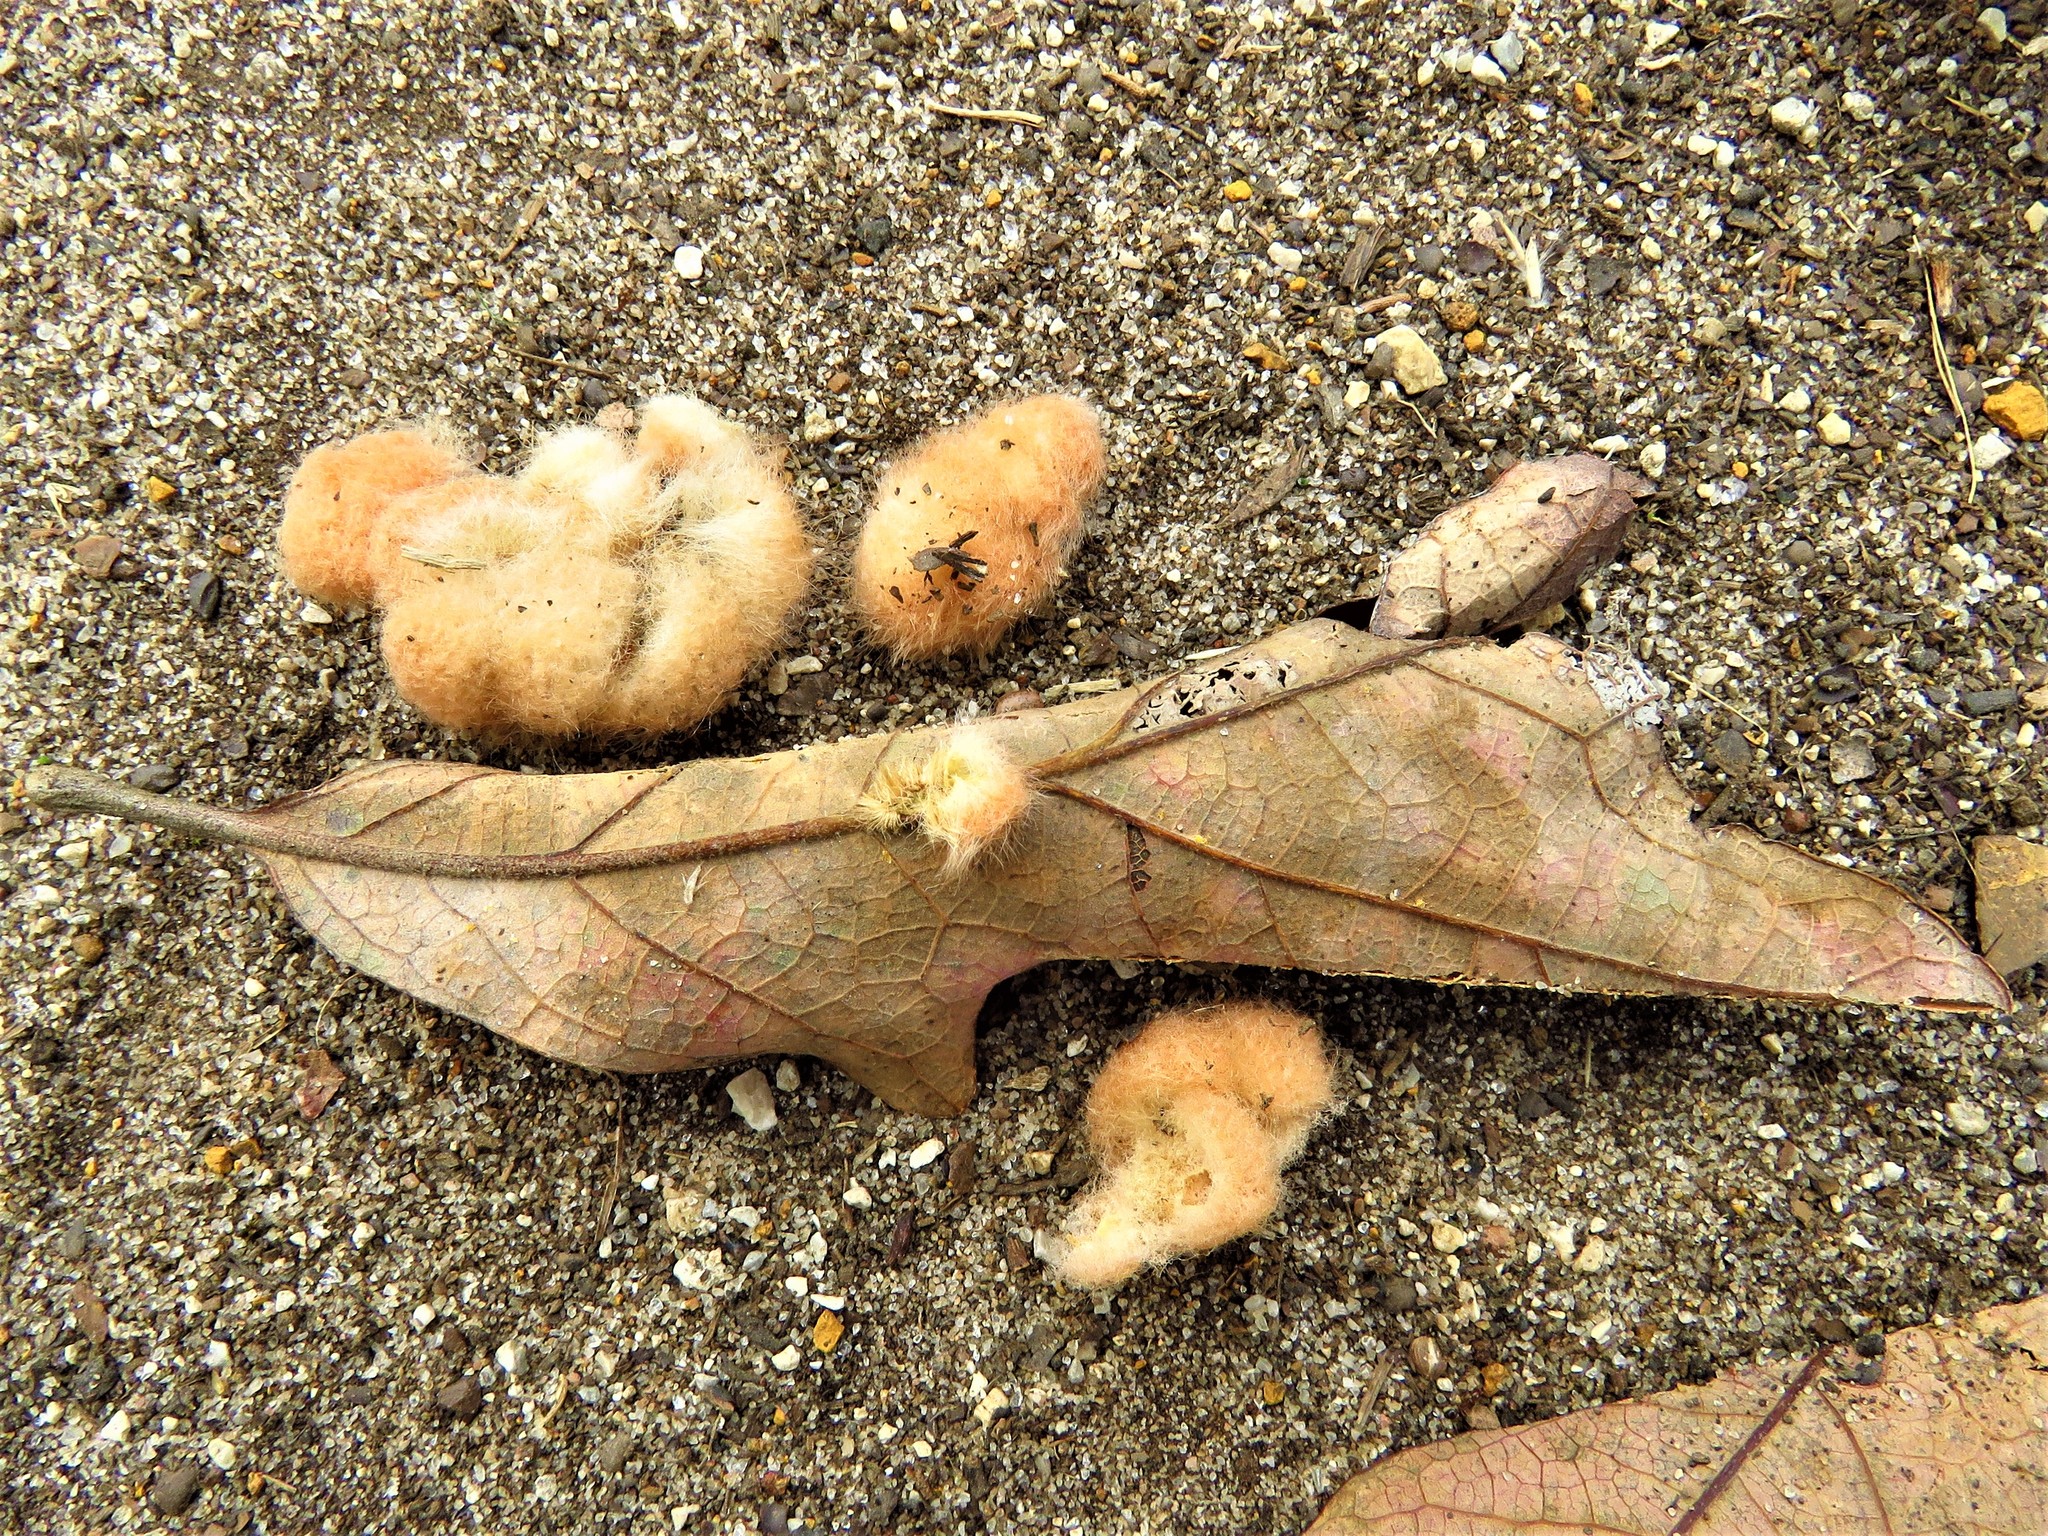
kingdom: Animalia
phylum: Arthropoda
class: Insecta
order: Hymenoptera
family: Cynipidae
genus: Andricus
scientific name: Andricus Druon pattoni
